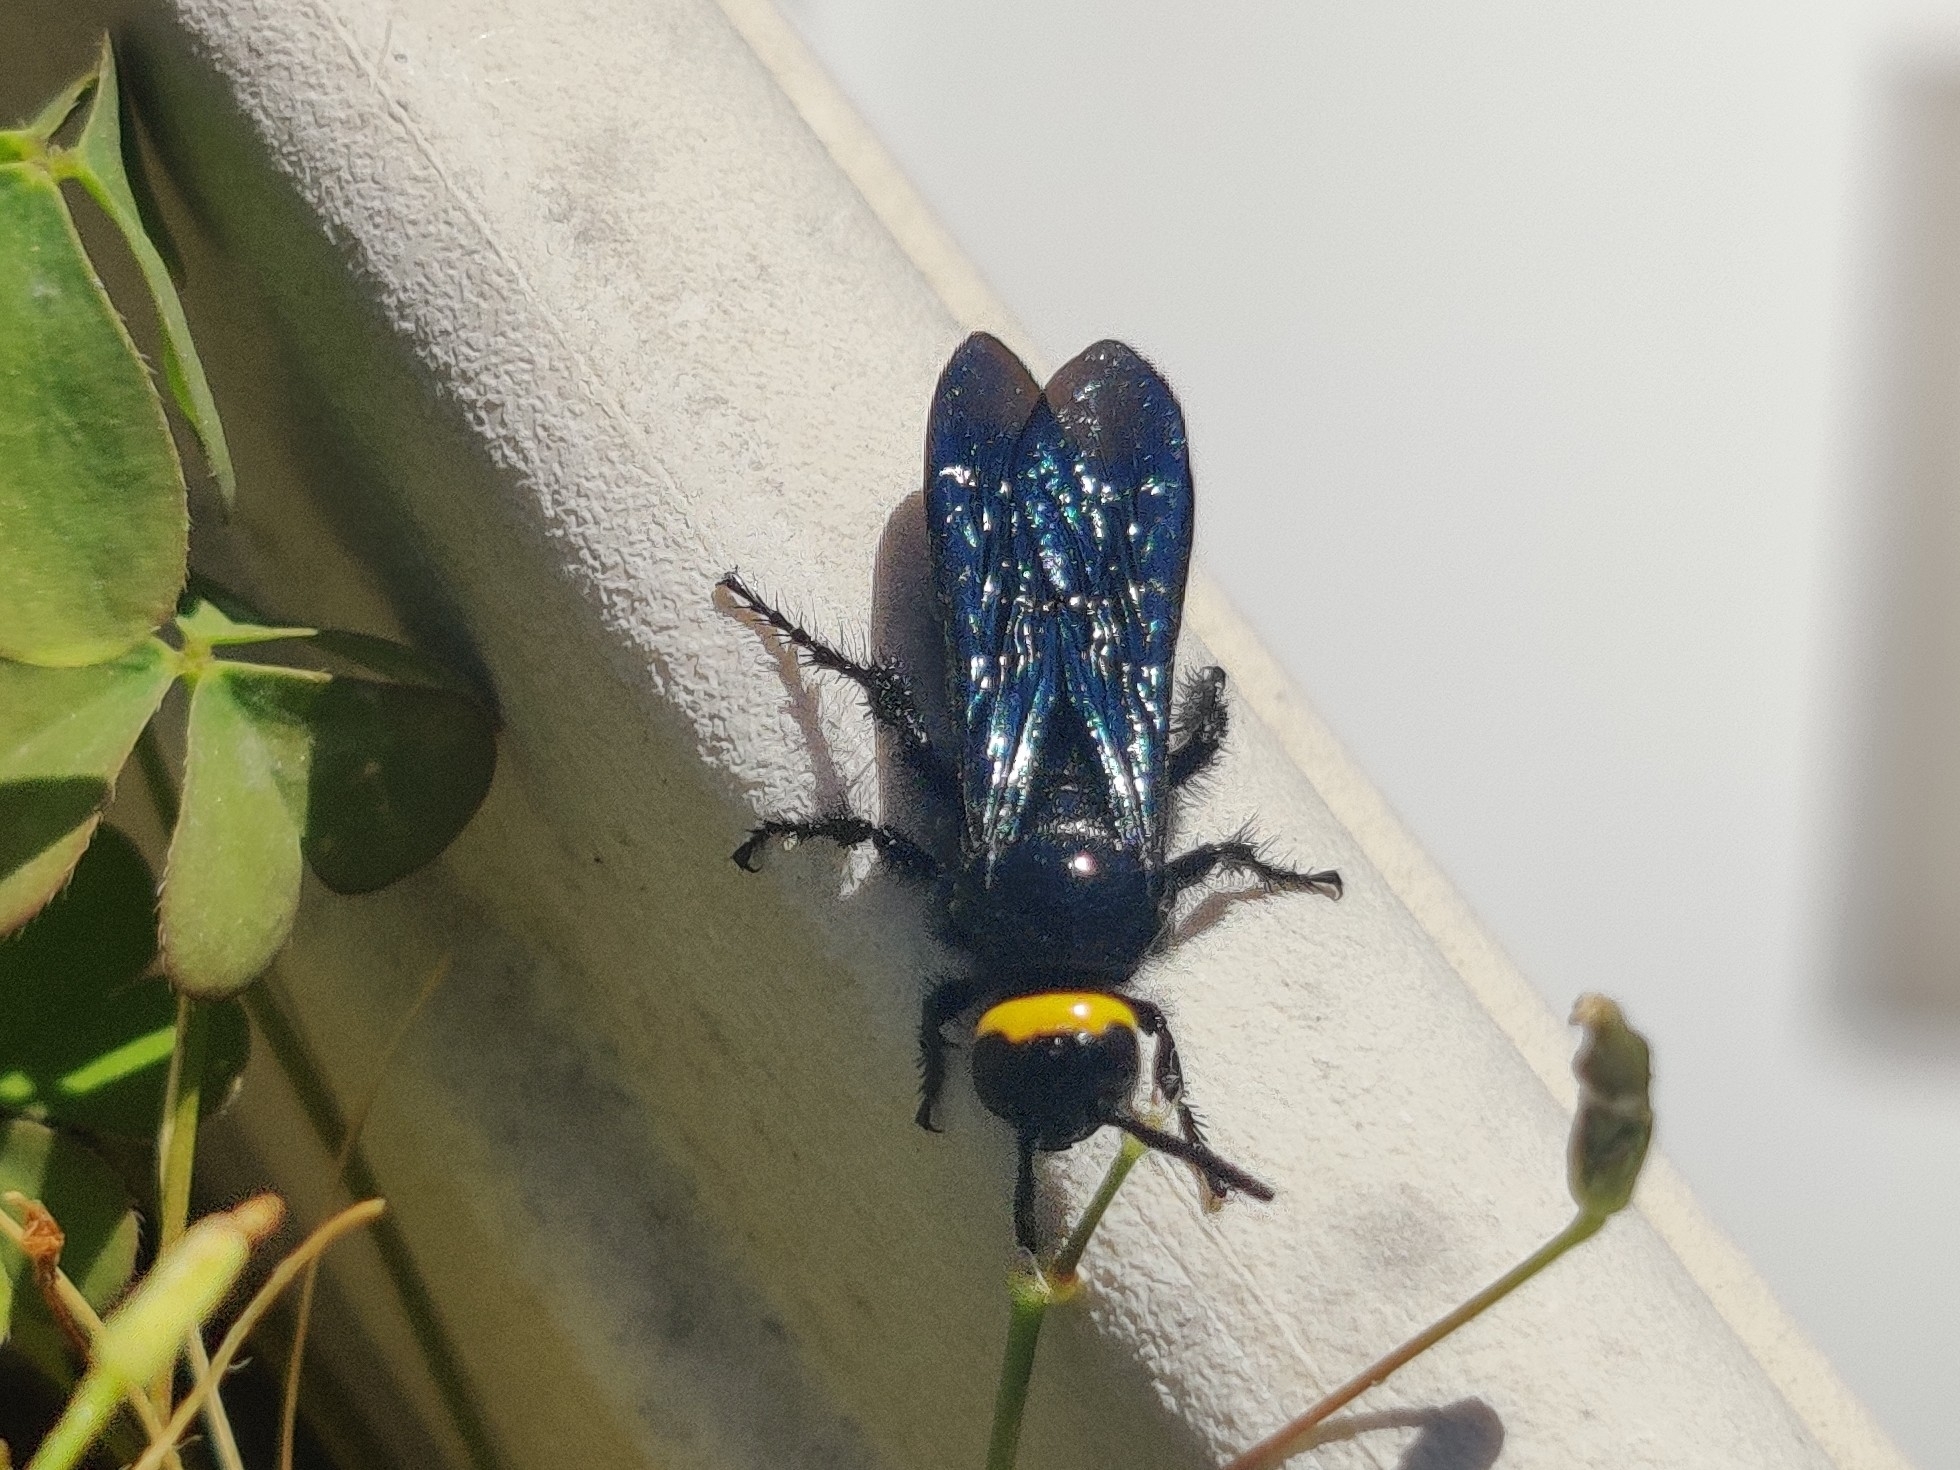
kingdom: Animalia
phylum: Arthropoda
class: Insecta
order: Hymenoptera
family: Scoliidae
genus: Scolia
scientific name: Scolia verticalis
